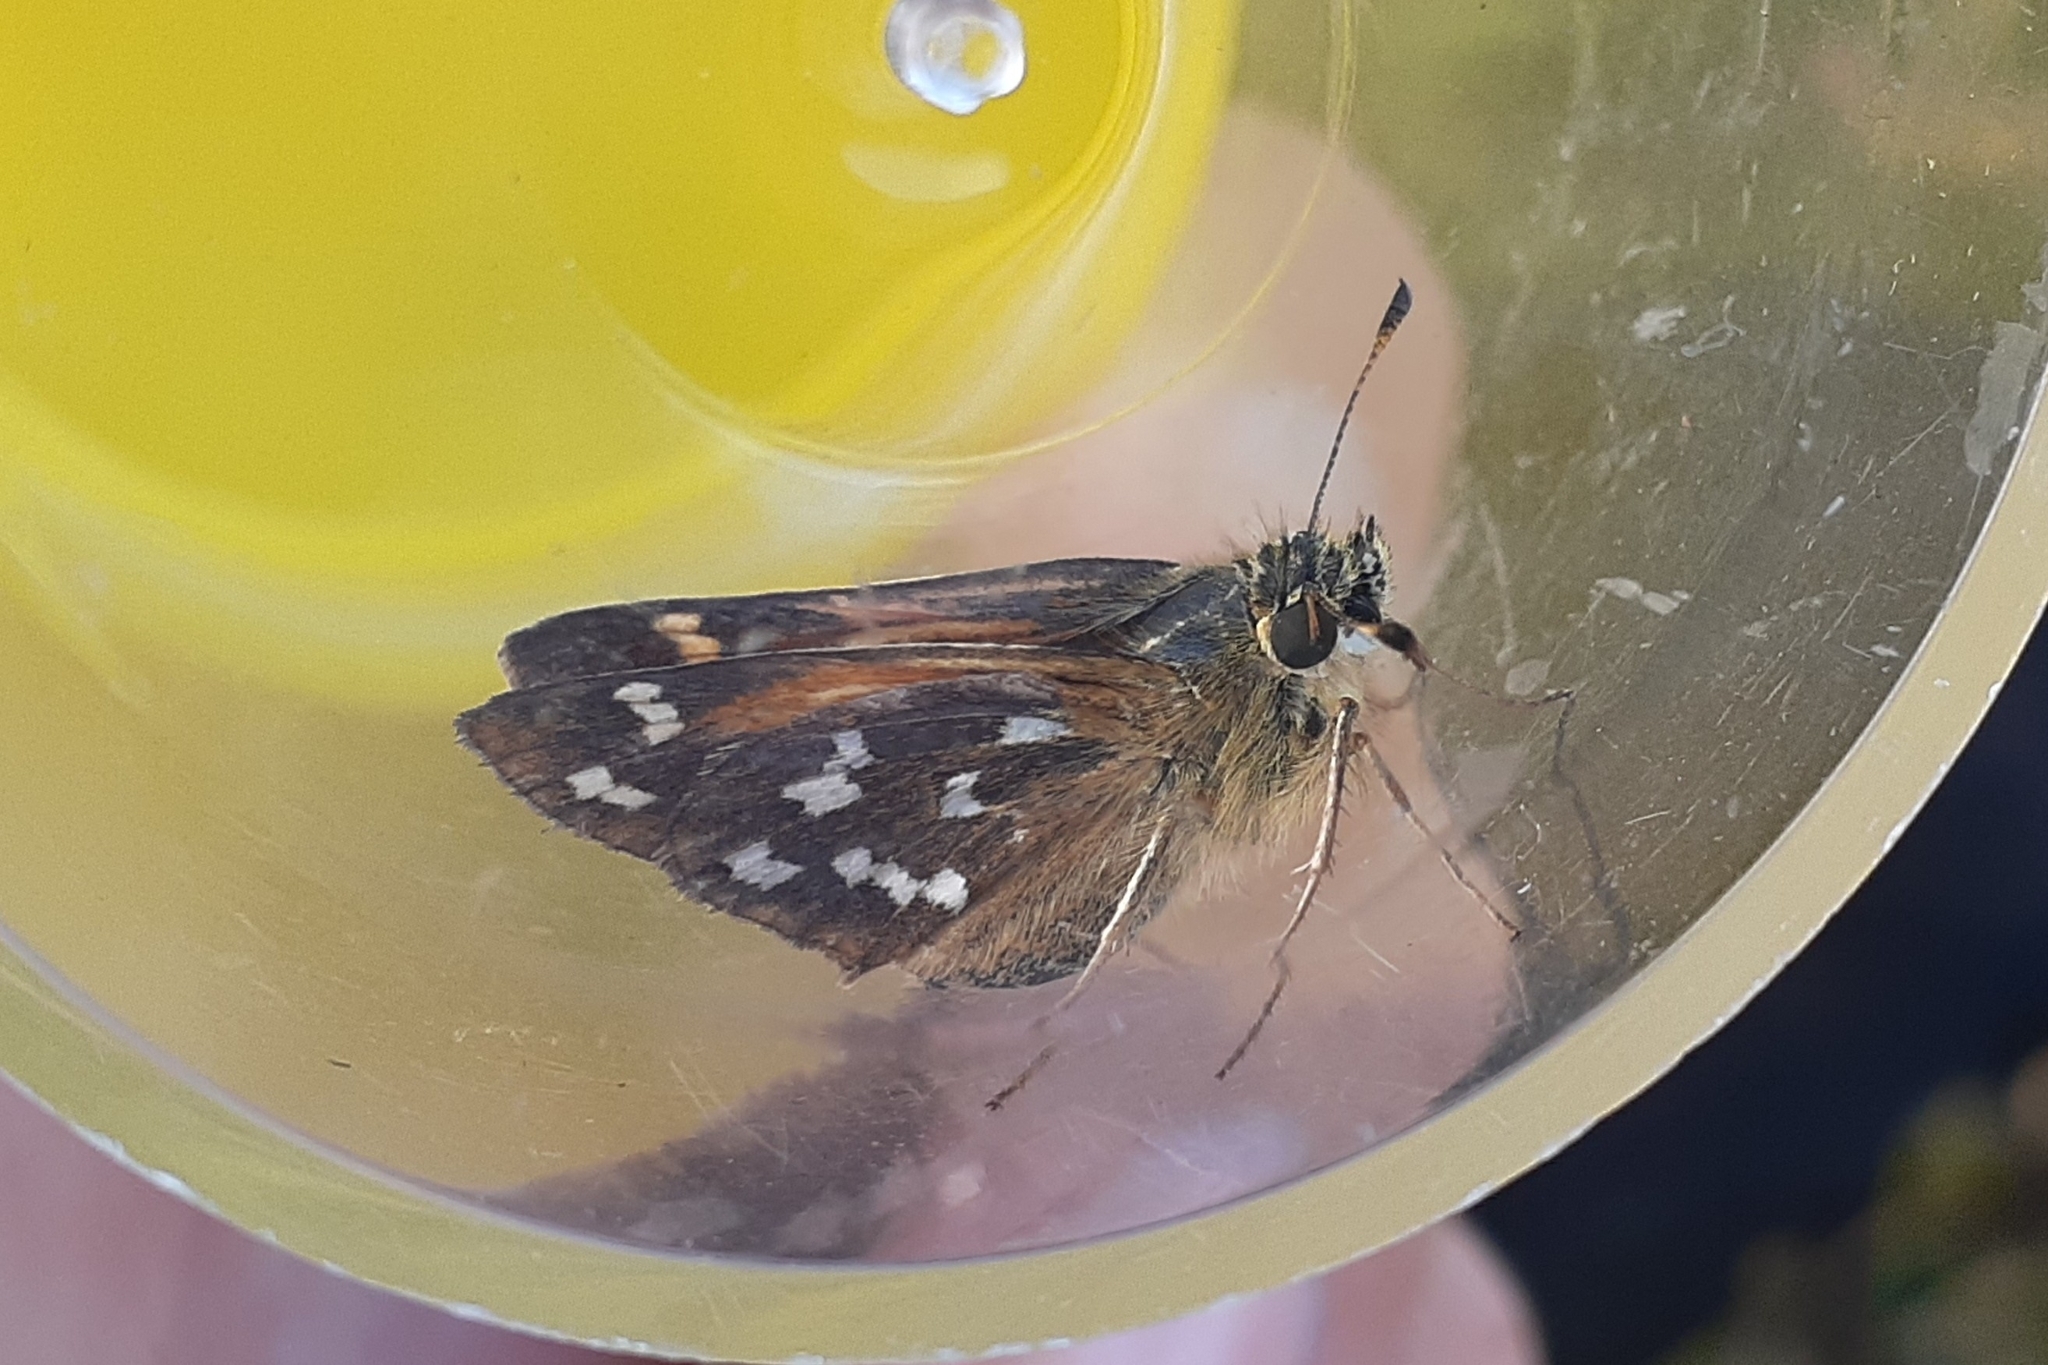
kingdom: Animalia
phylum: Arthropoda
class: Insecta
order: Lepidoptera
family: Hesperiidae
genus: Hesperia
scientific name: Hesperia comma
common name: Common branded skipper
